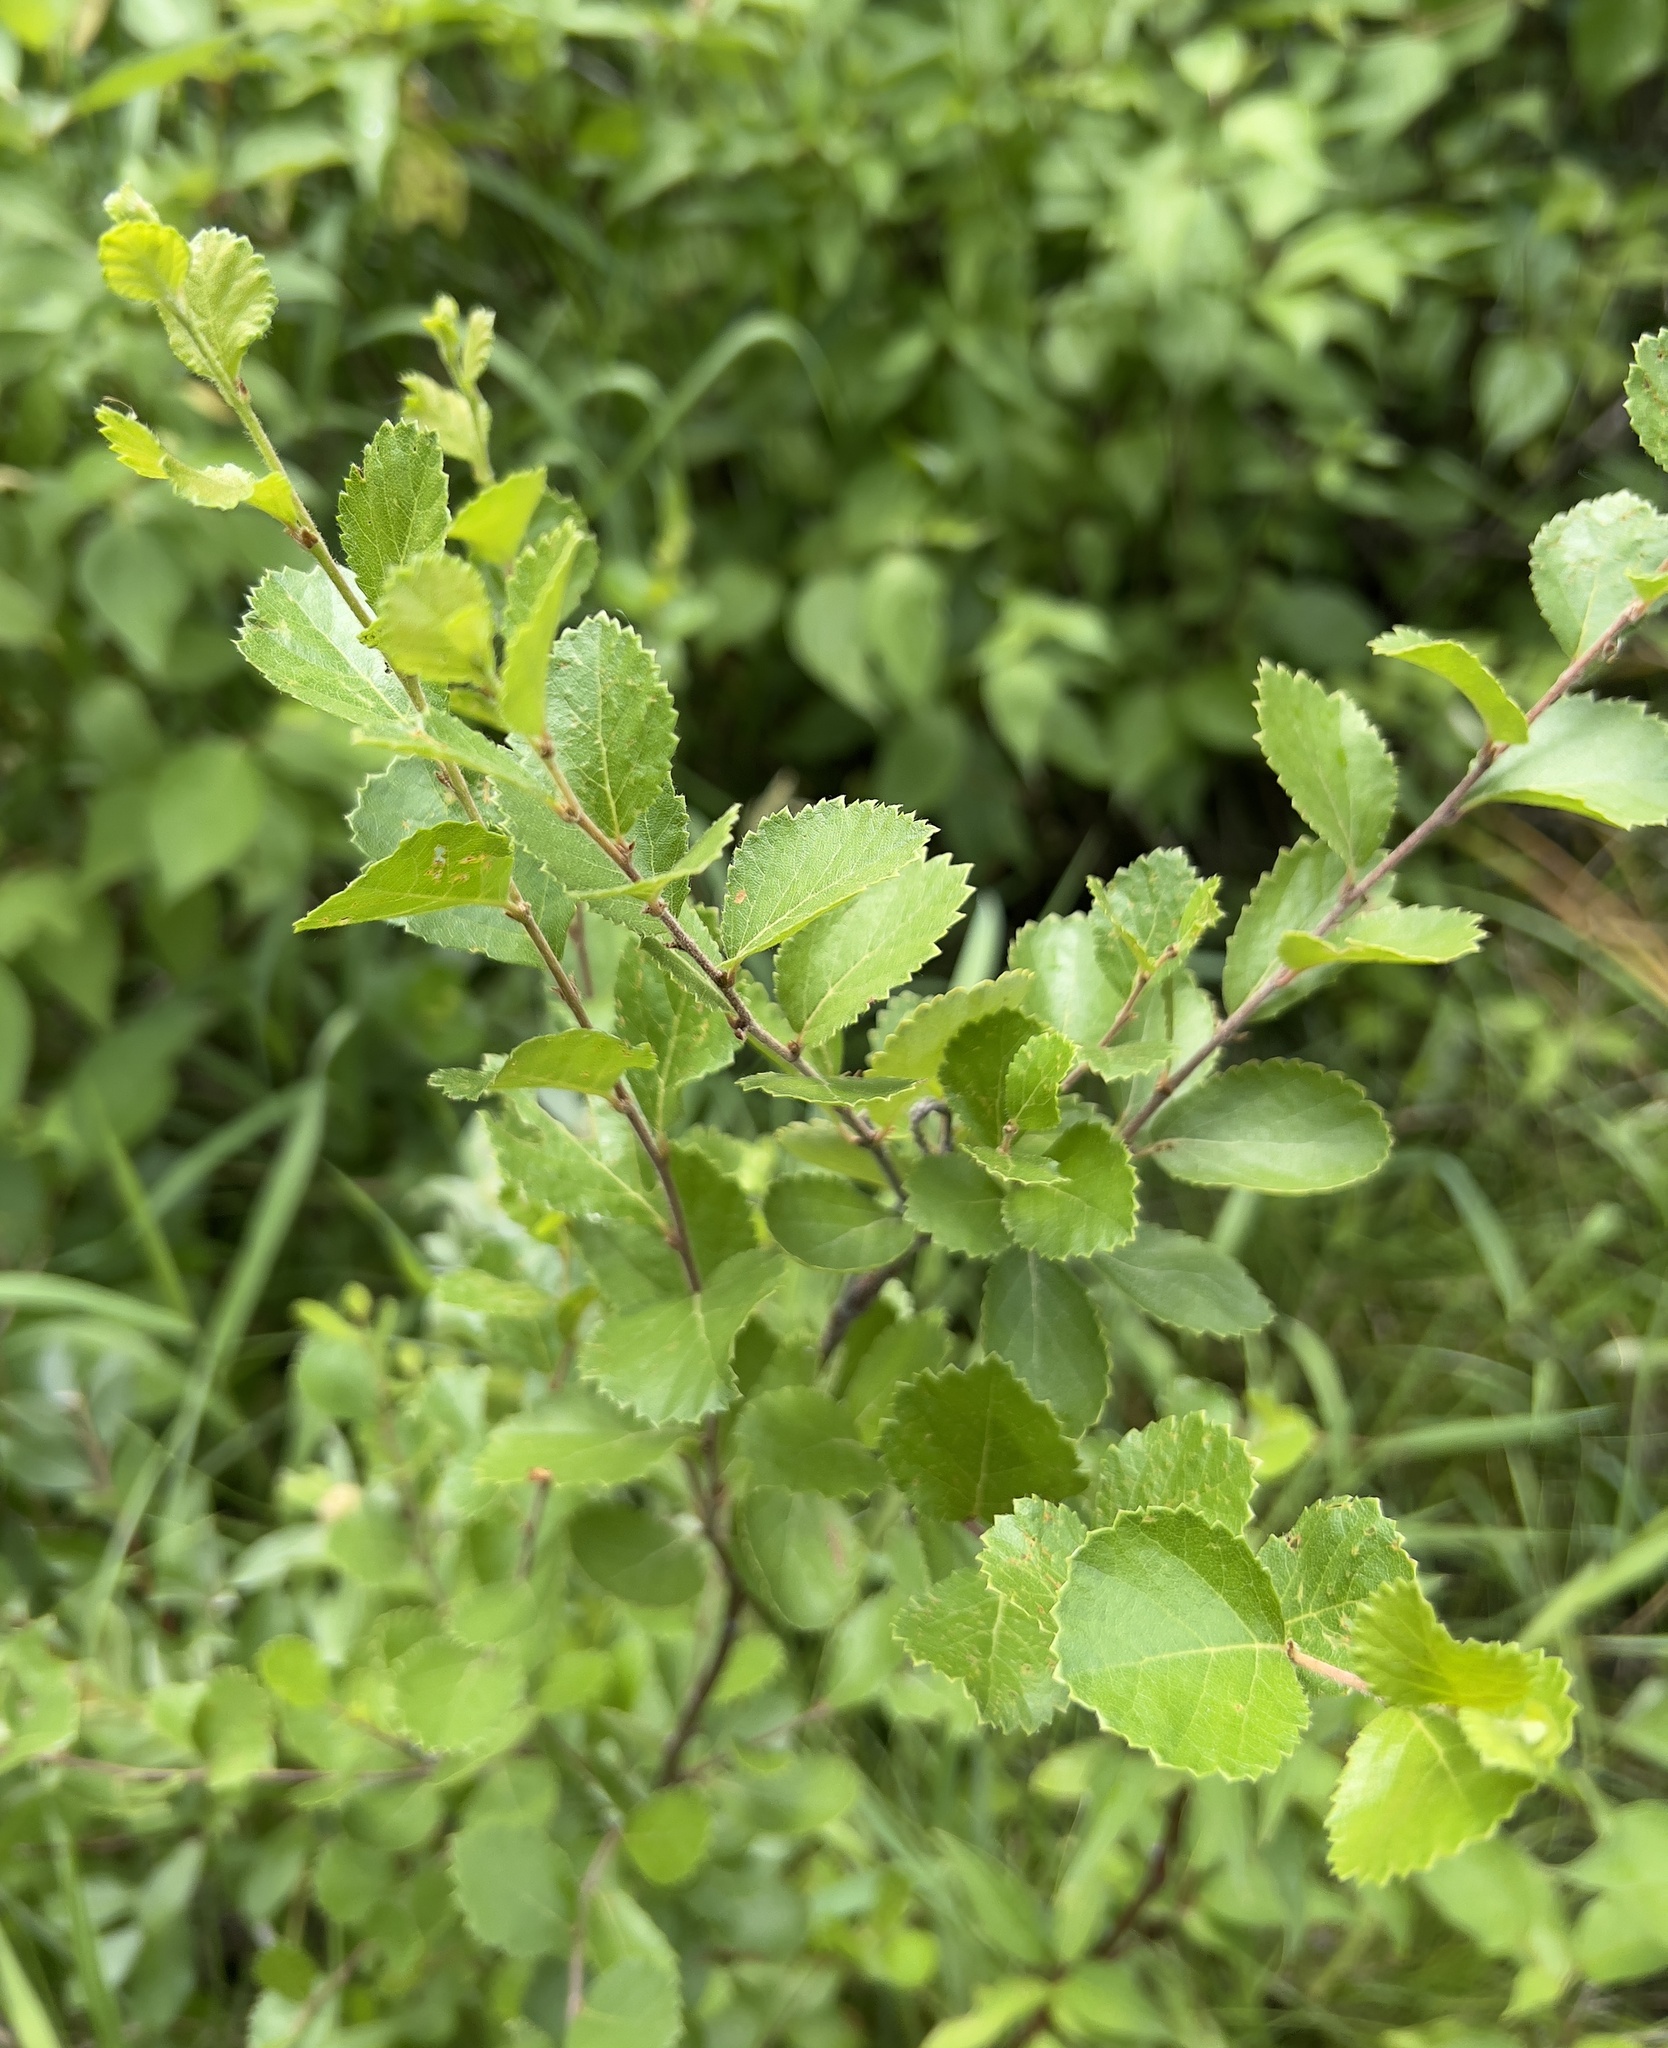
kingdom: Plantae
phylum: Tracheophyta
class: Magnoliopsida
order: Fagales
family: Betulaceae
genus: Betula
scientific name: Betula pumila
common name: Bog birch
